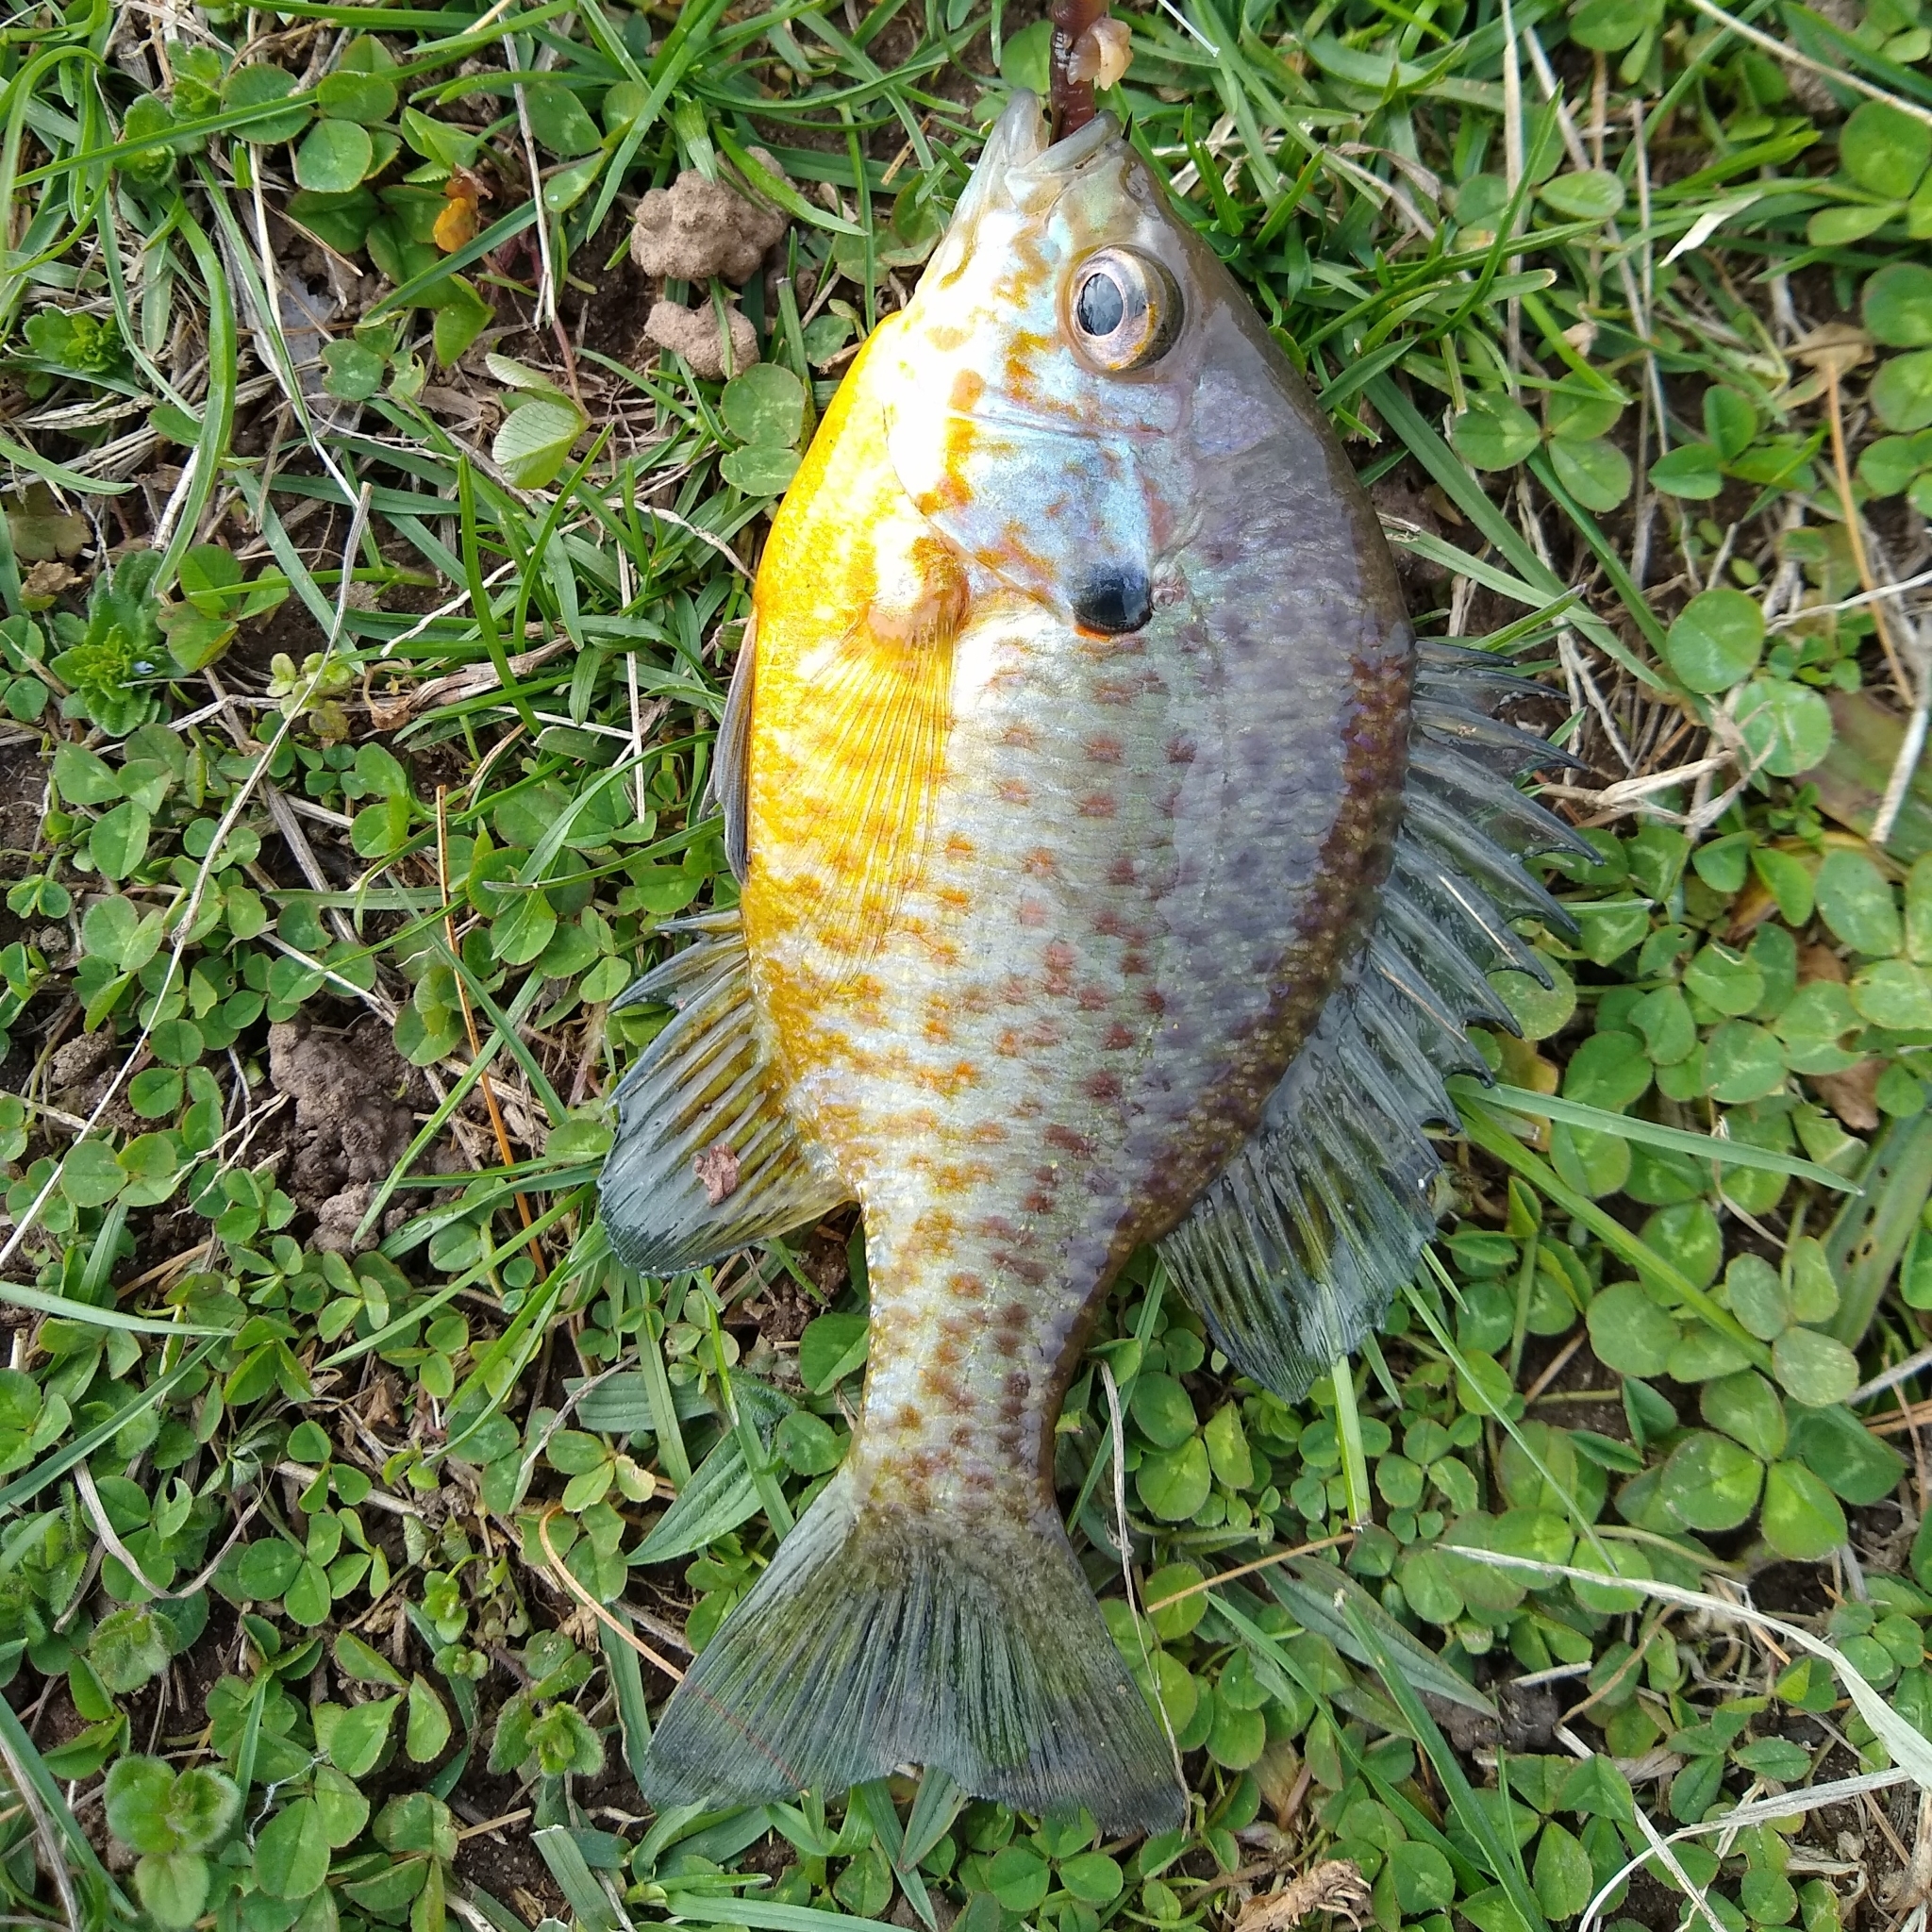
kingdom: Animalia
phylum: Chordata
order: Perciformes
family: Centrarchidae
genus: Lepomis
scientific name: Lepomis
